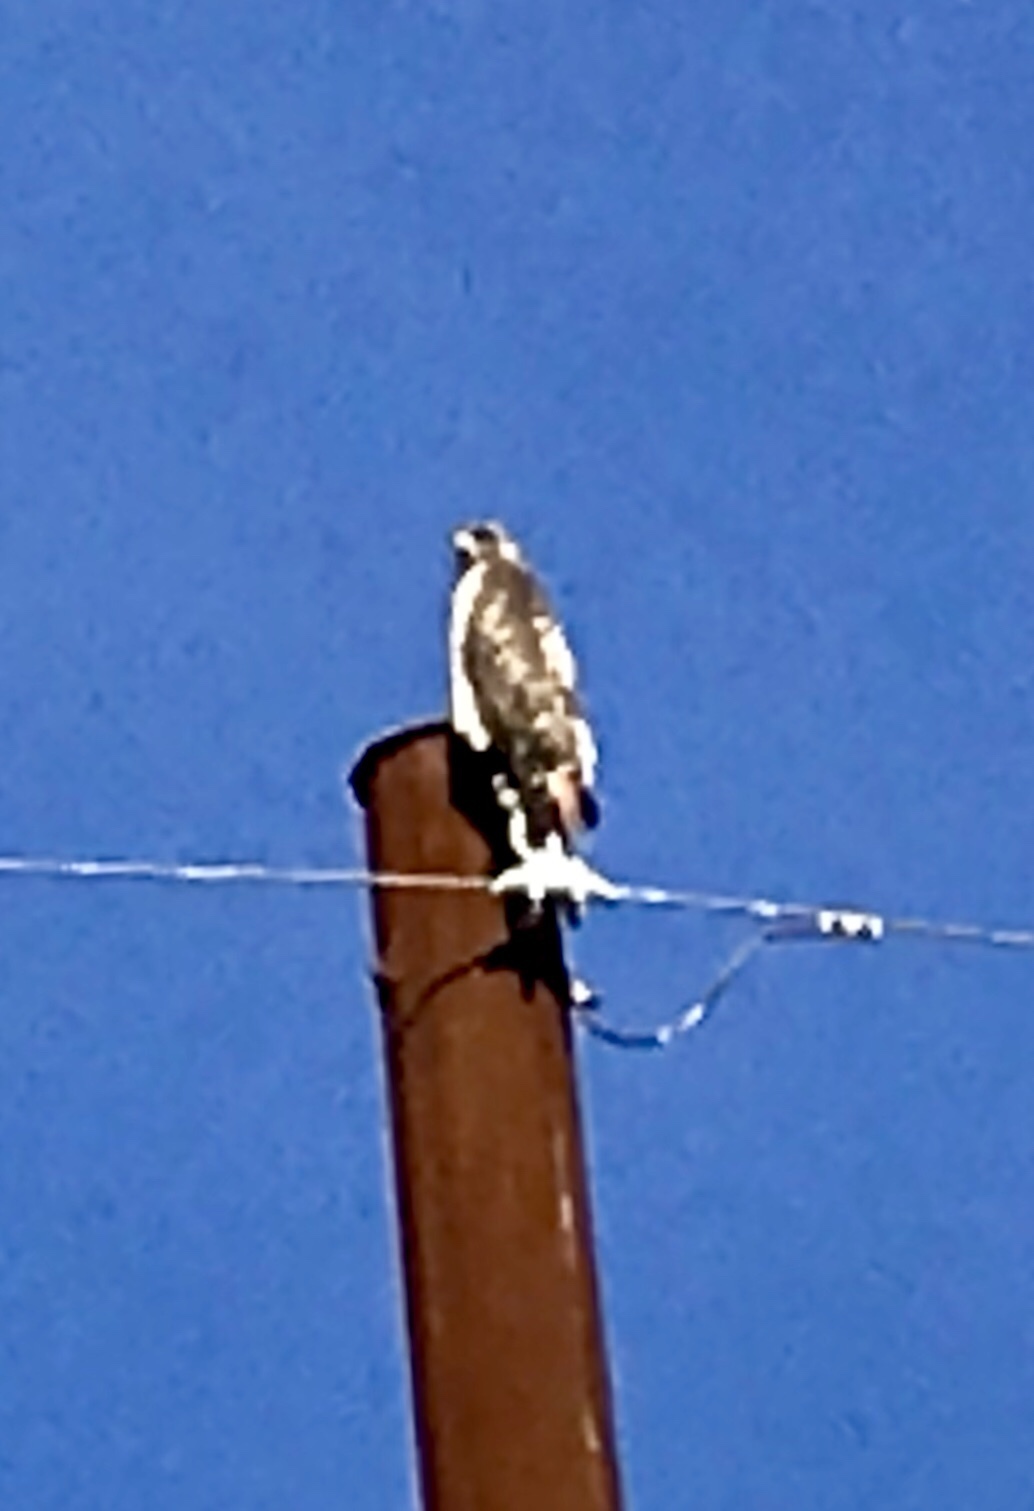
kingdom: Animalia
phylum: Chordata
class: Aves
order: Accipitriformes
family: Accipitridae
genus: Buteo
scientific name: Buteo jamaicensis
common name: Red-tailed hawk
